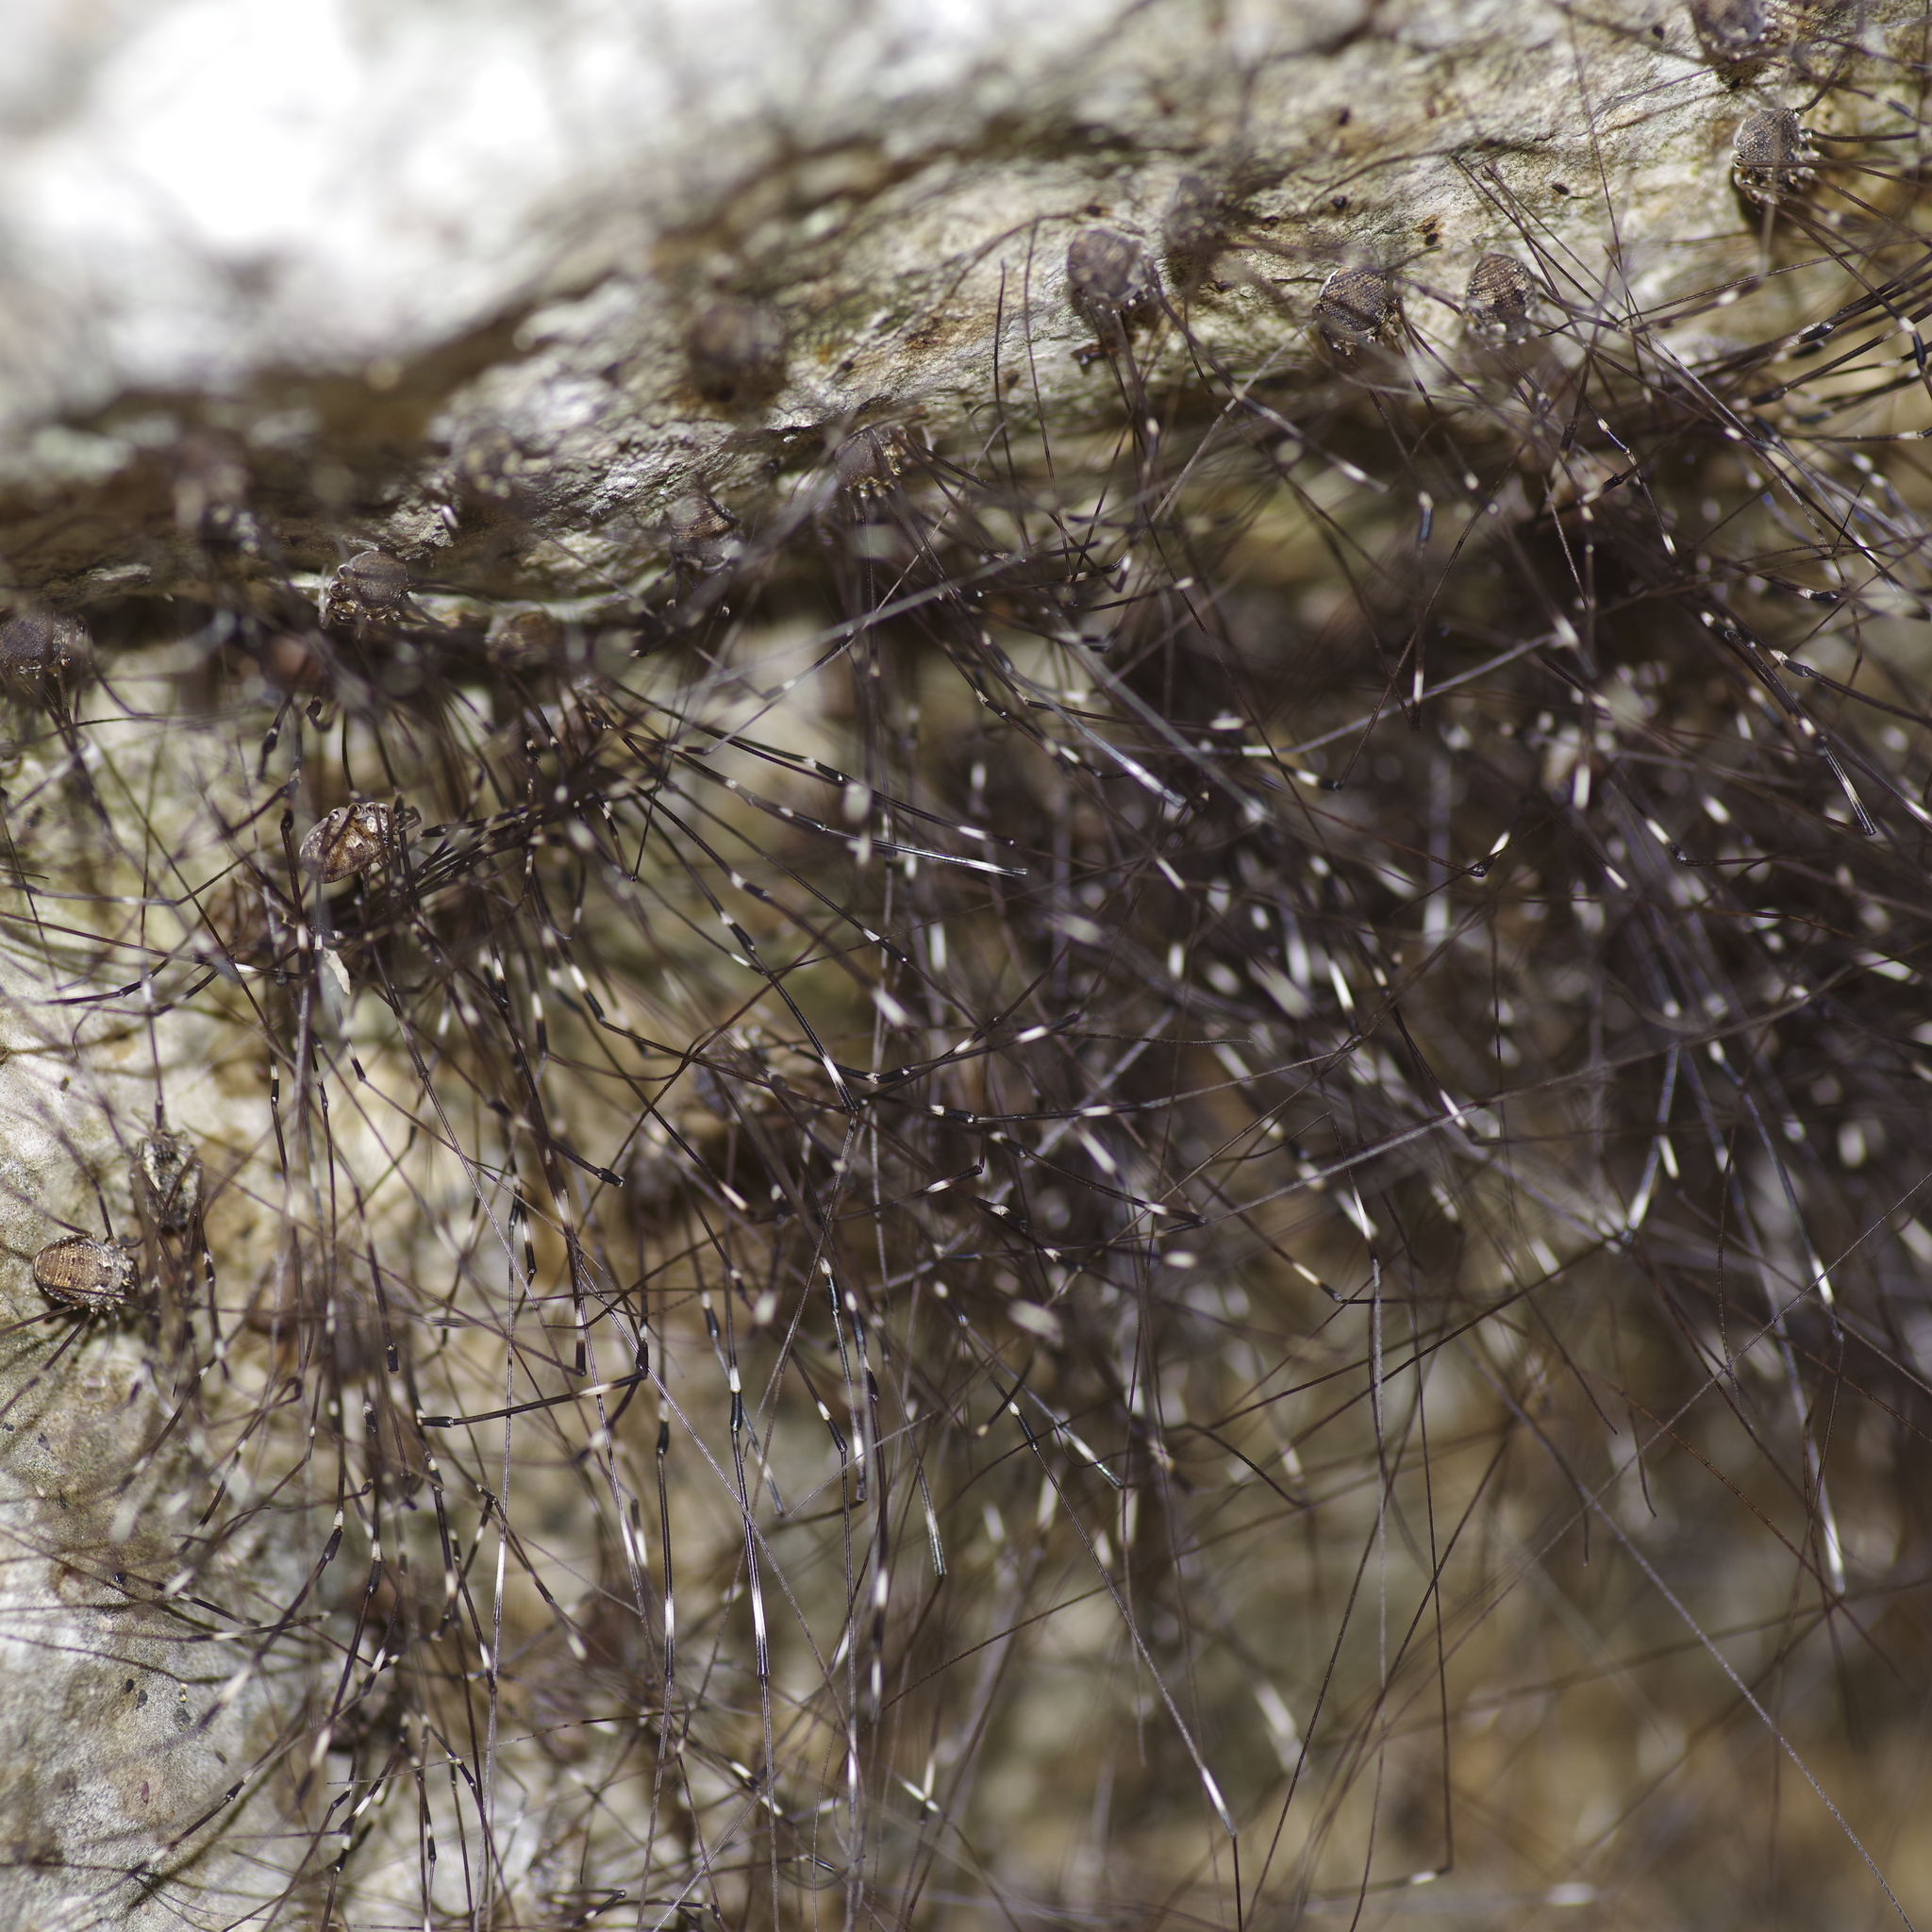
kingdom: Animalia
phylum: Arthropoda
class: Arachnida
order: Opiliones
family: Sclerosomatidae
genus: Leiobunum
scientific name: Leiobunum townsendi
